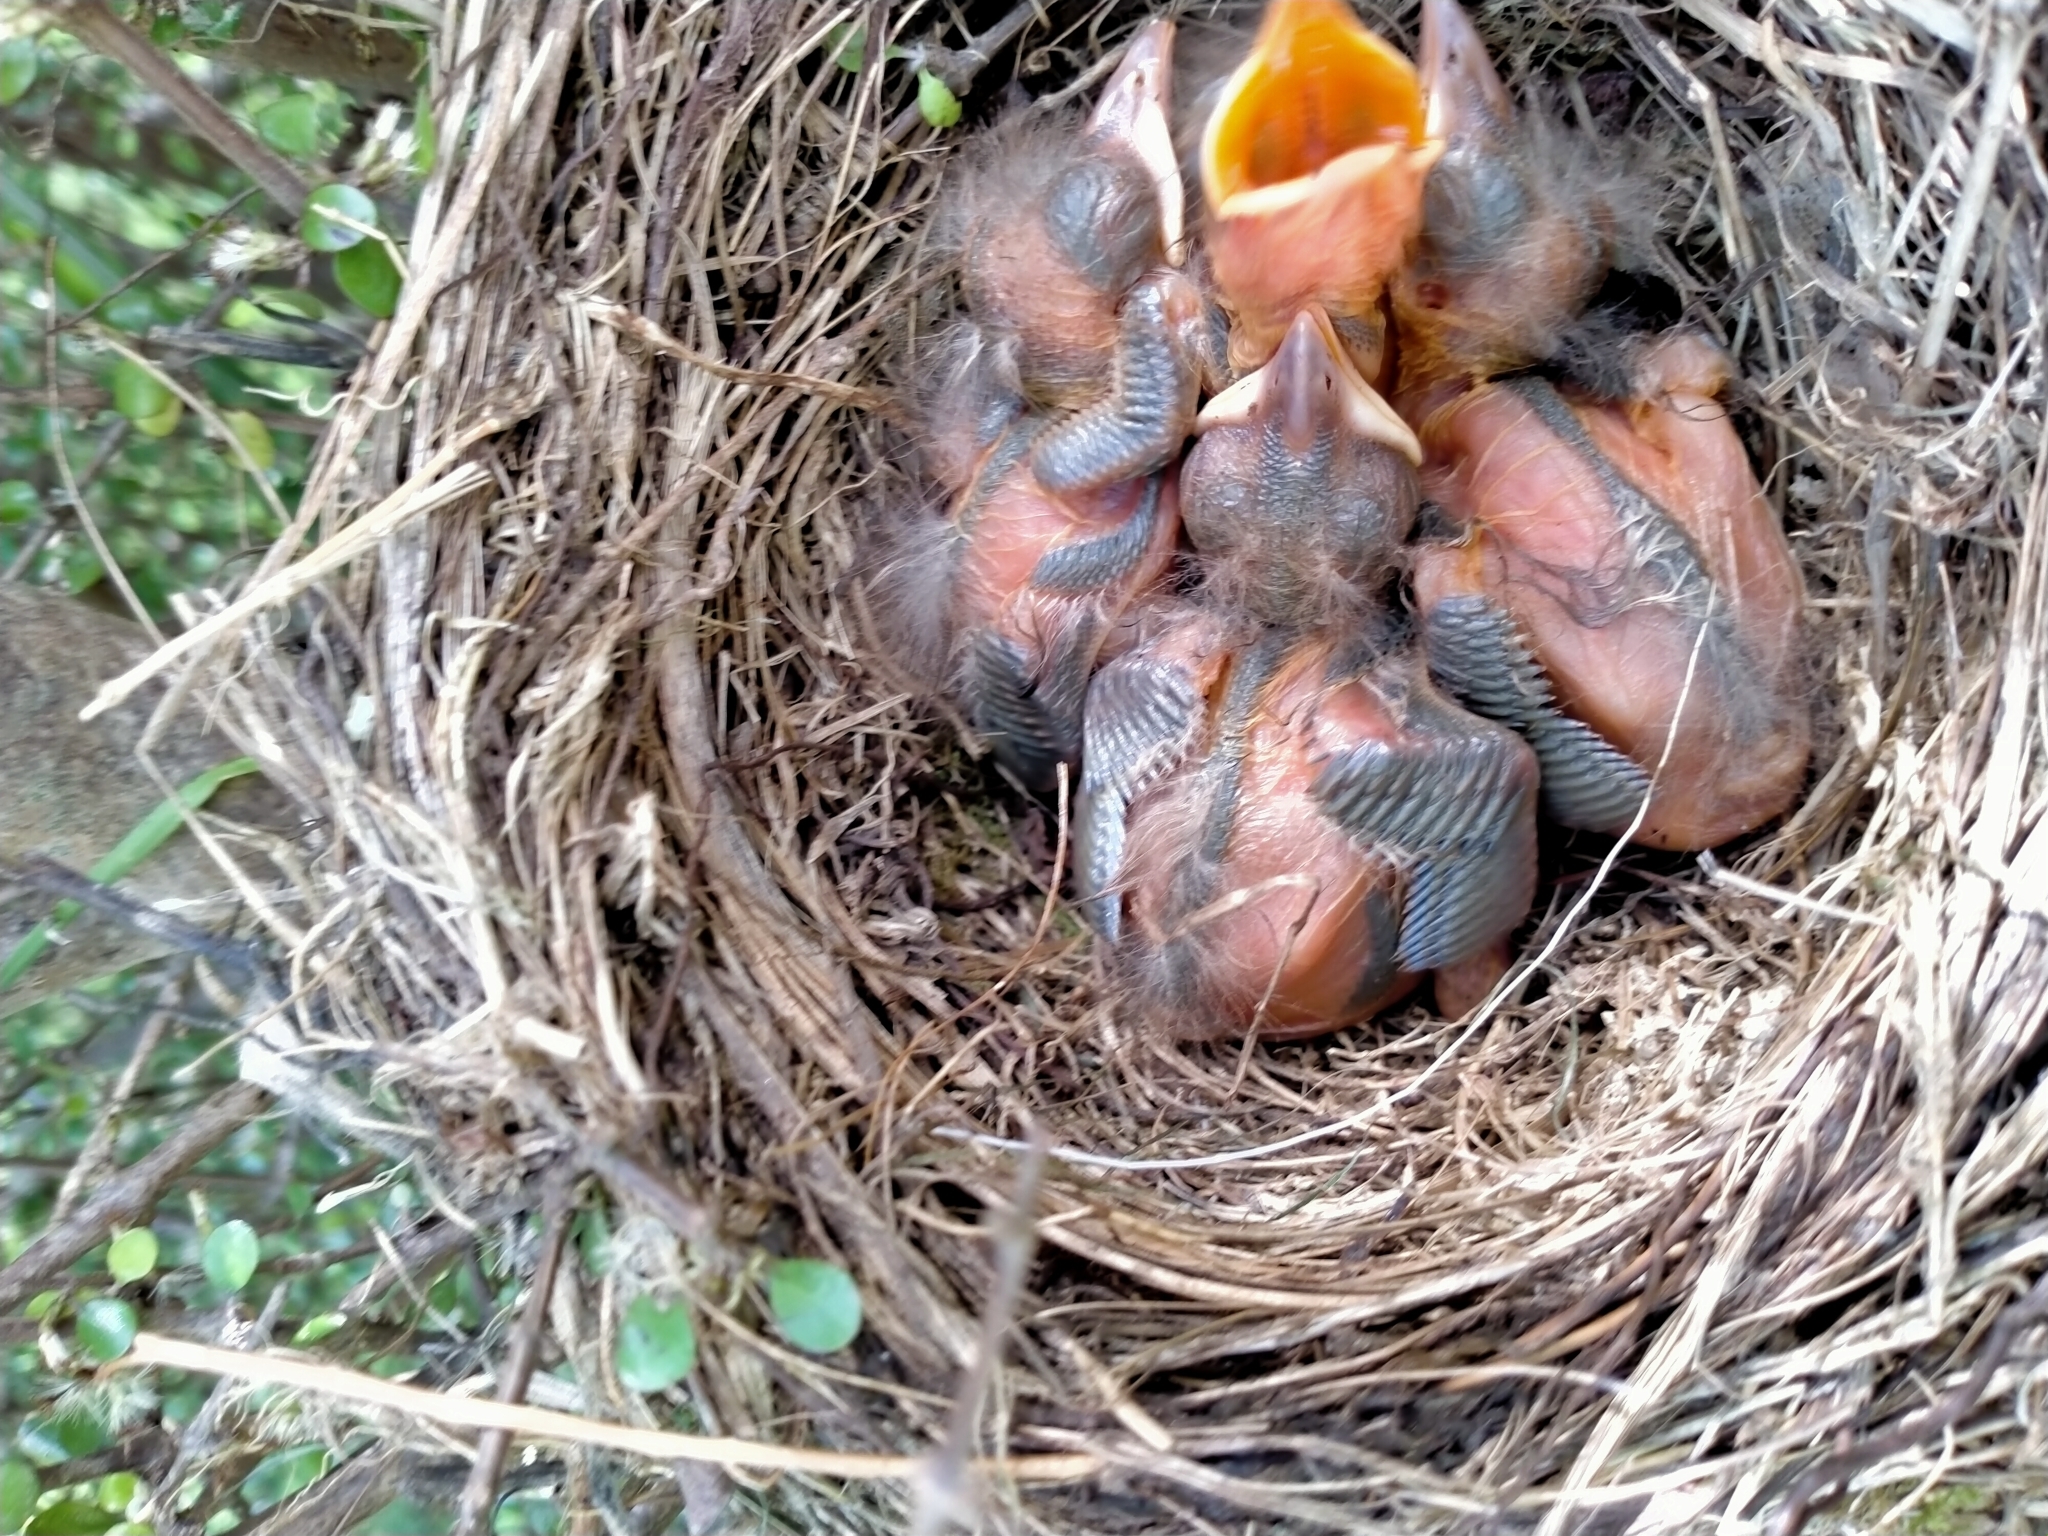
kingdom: Animalia
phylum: Chordata
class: Aves
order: Passeriformes
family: Turdidae
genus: Turdus
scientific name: Turdus merula
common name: Common blackbird
